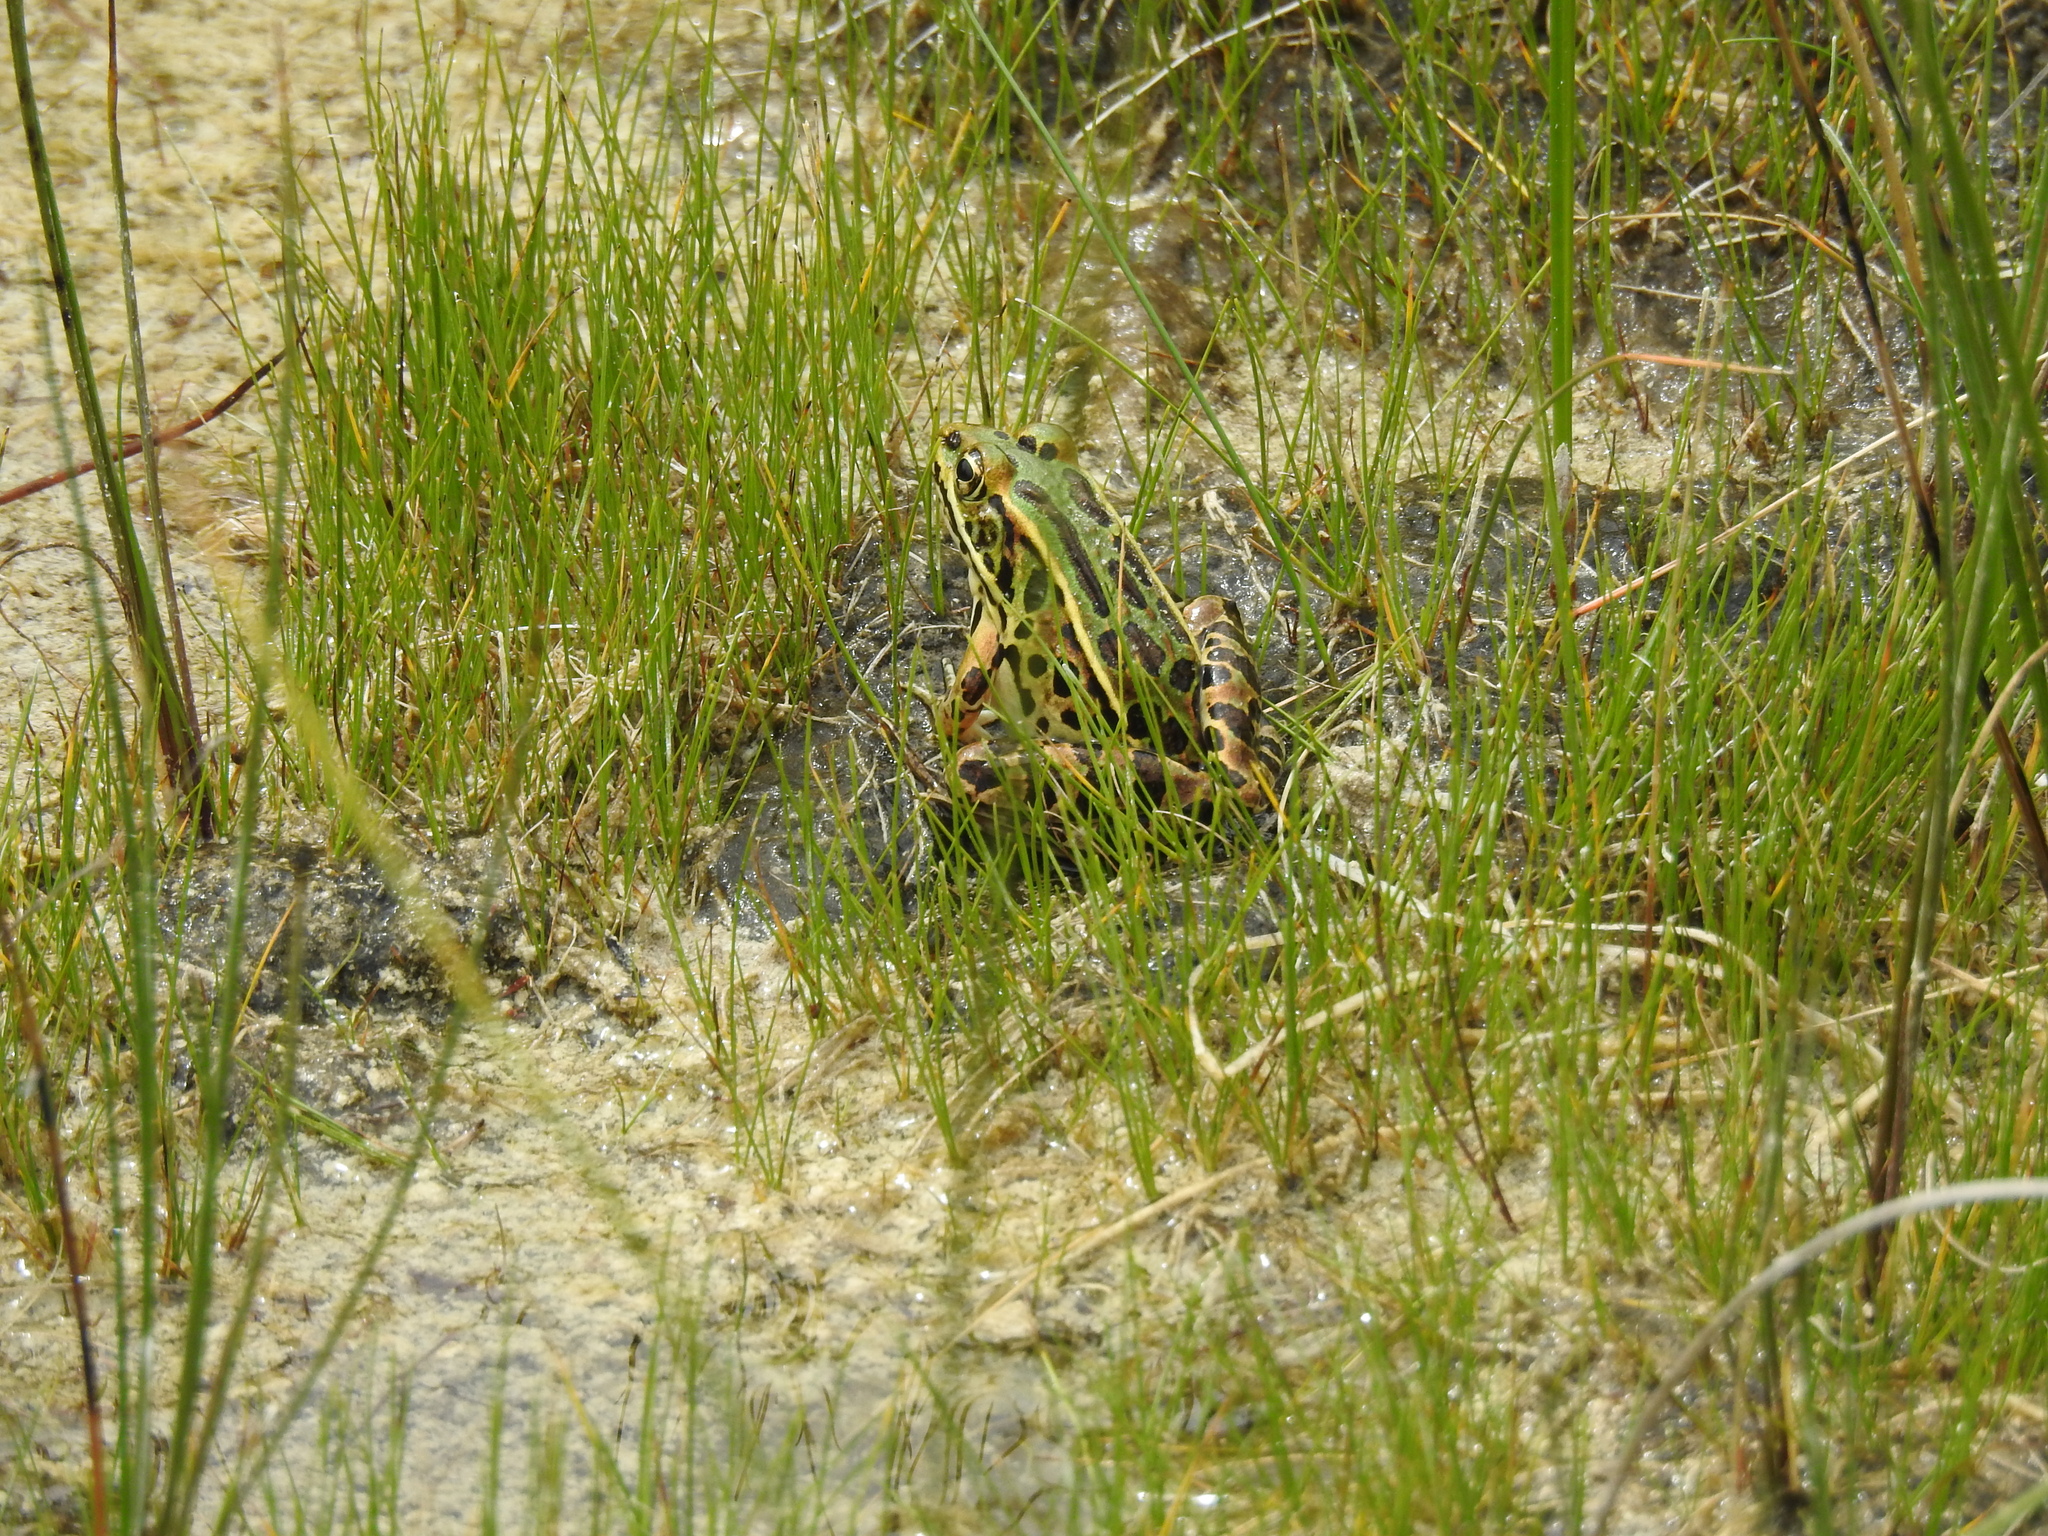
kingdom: Animalia
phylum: Chordata
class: Amphibia
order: Anura
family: Ranidae
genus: Lithobates
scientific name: Lithobates pipiens
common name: Northern leopard frog
